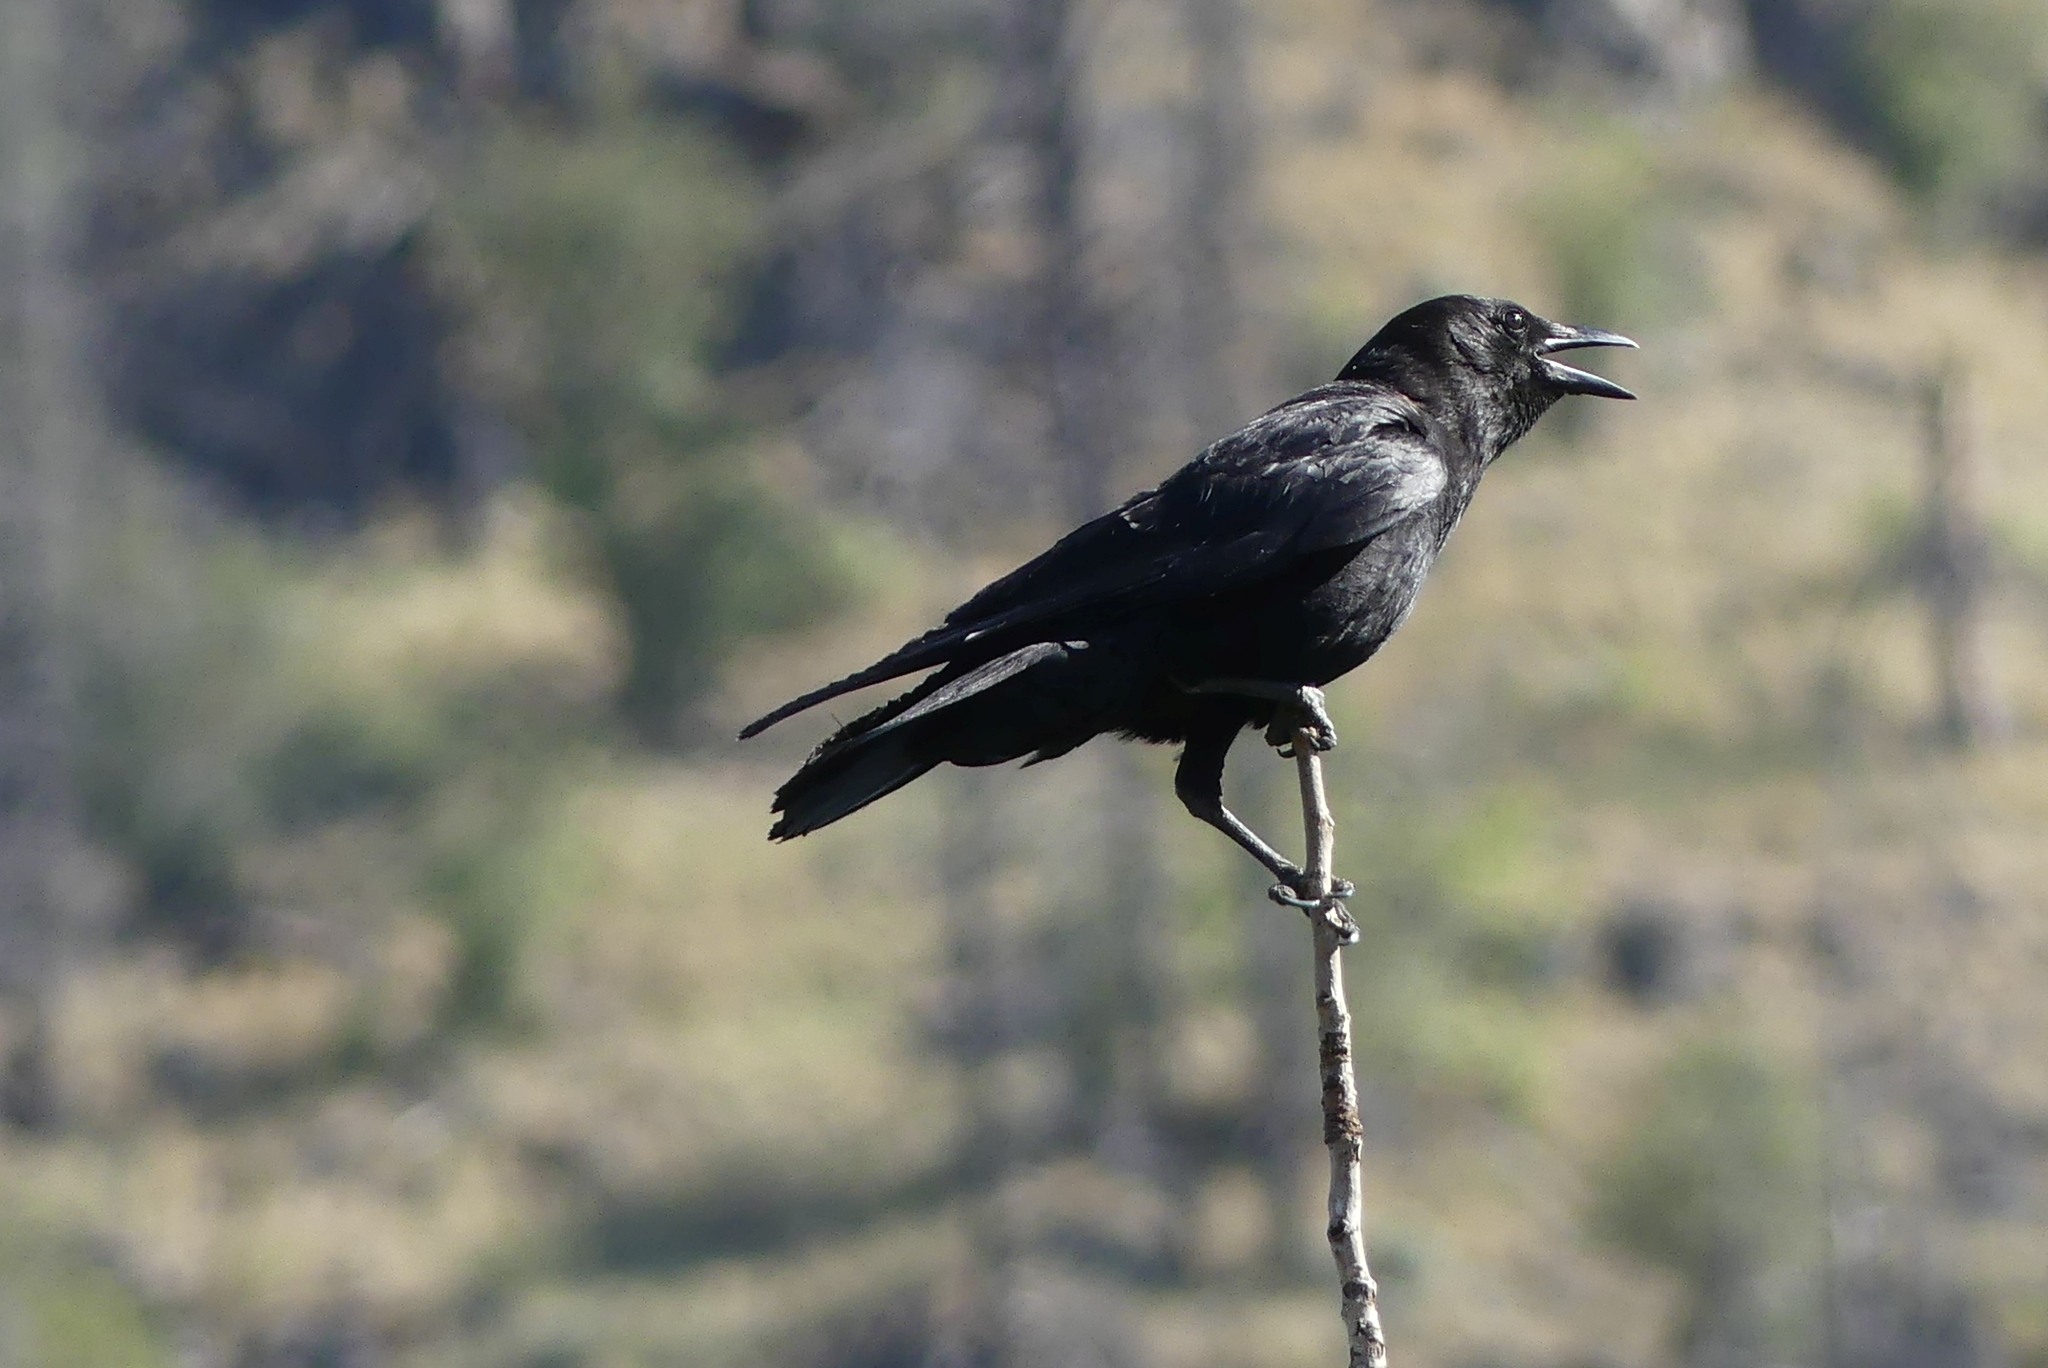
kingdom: Animalia
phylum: Chordata
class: Aves
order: Passeriformes
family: Corvidae
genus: Corvus
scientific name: Corvus brachyrhynchos
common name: American crow
